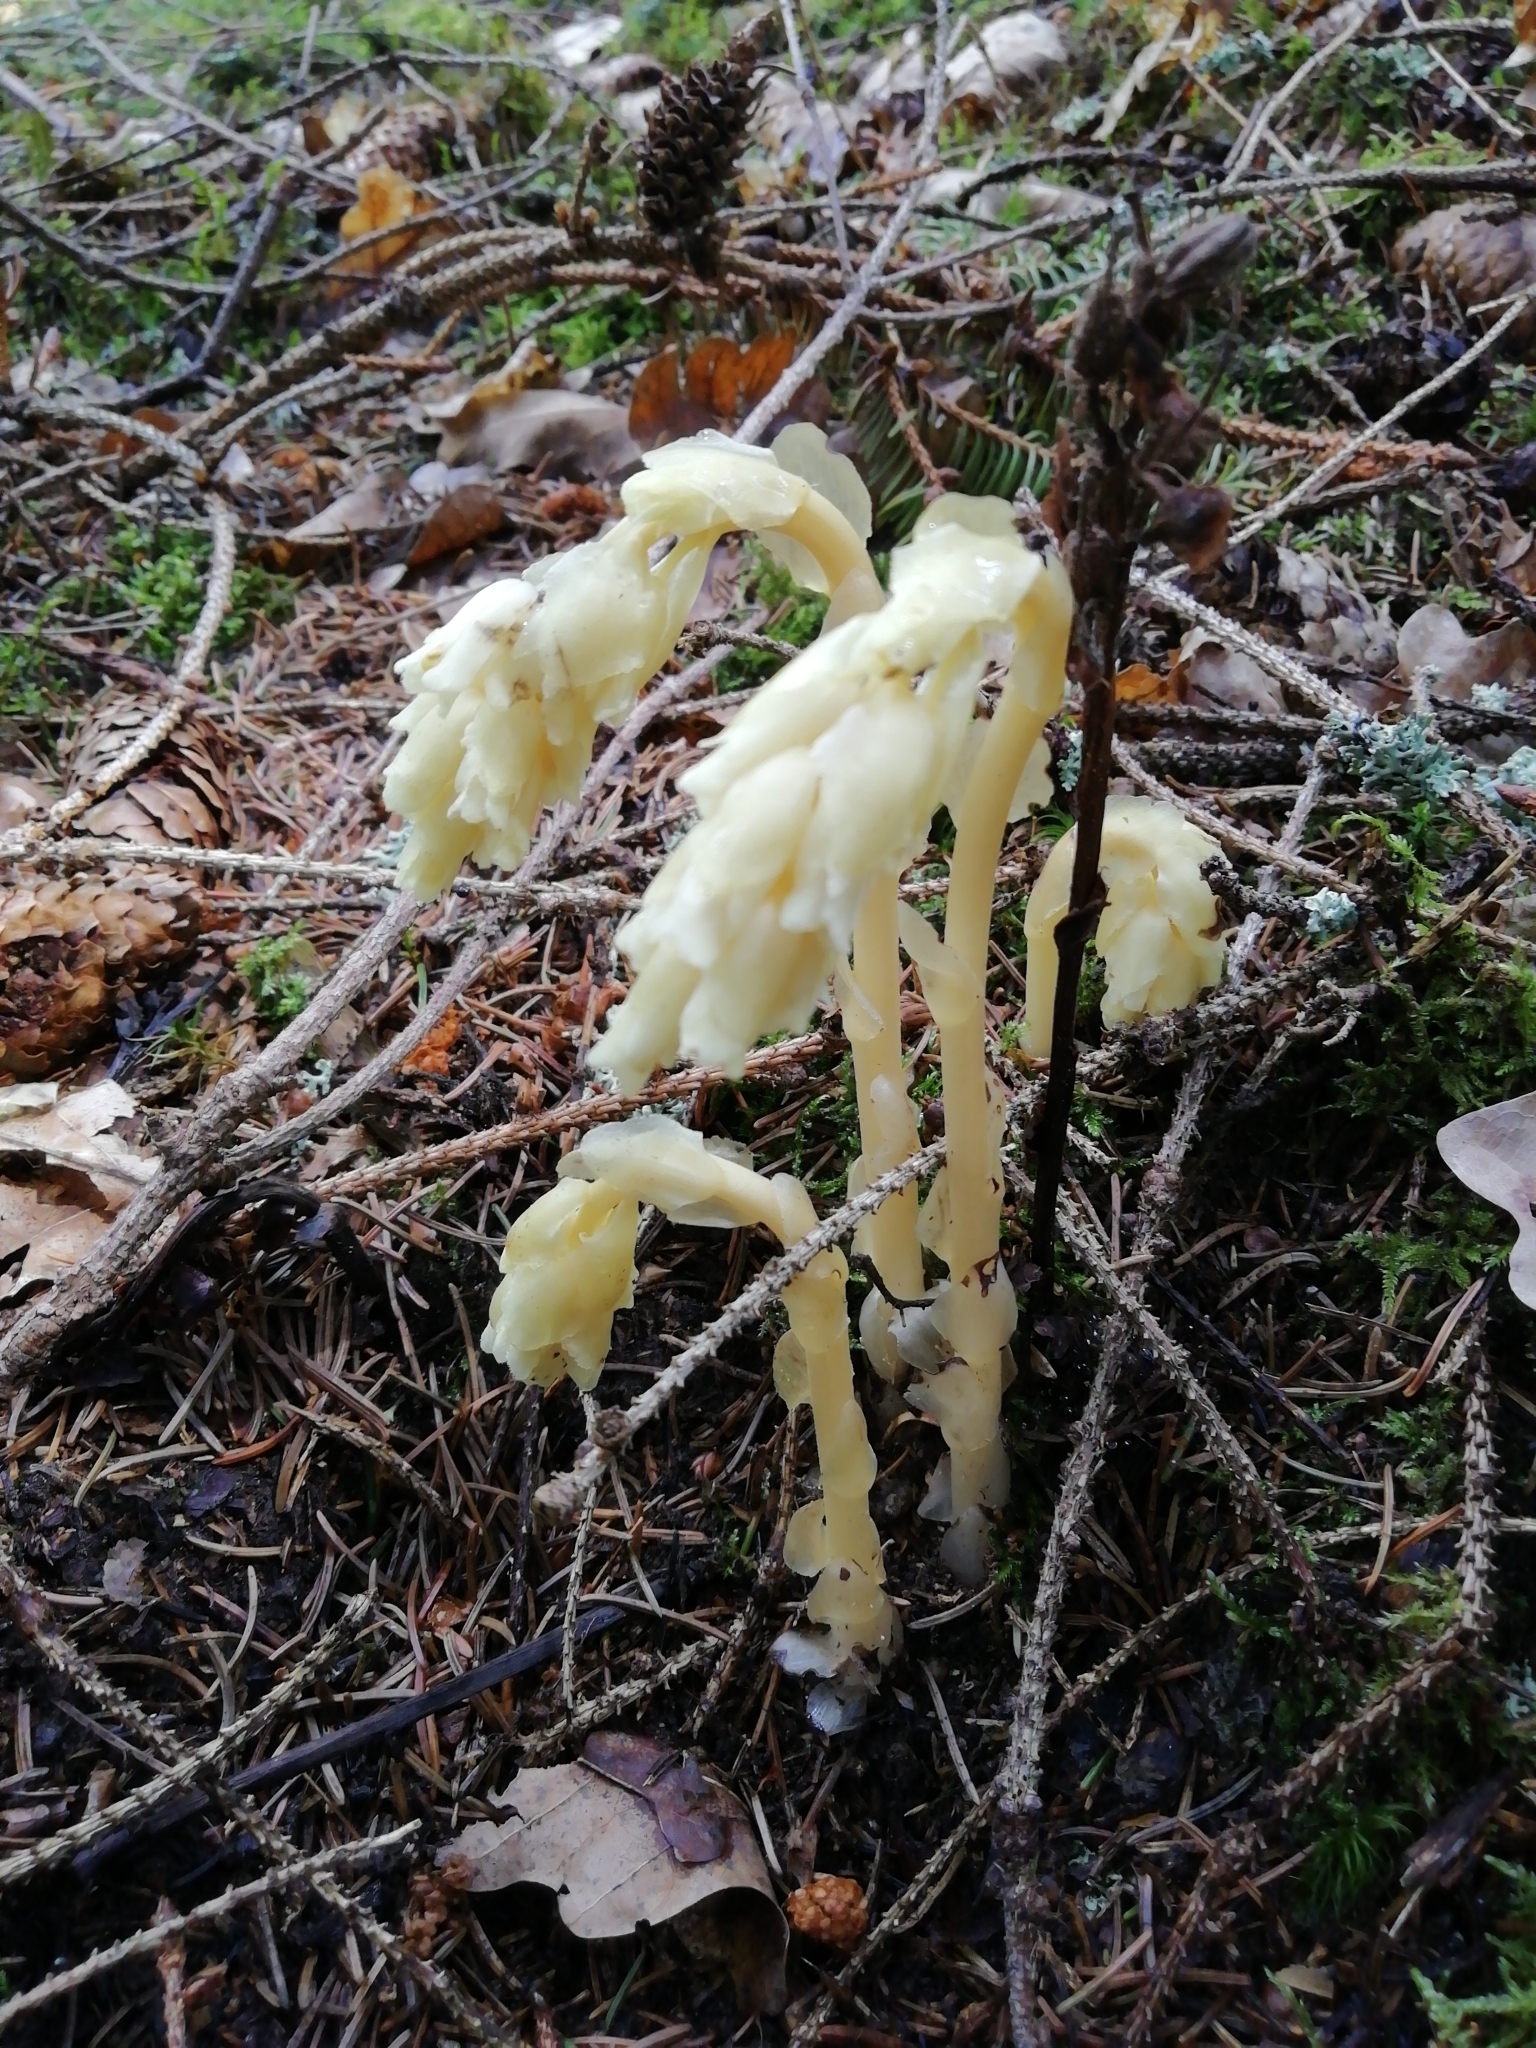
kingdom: Plantae
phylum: Tracheophyta
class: Magnoliopsida
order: Ericales
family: Ericaceae
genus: Hypopitys
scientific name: Hypopitys monotropa
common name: Yellow bird's-nest
